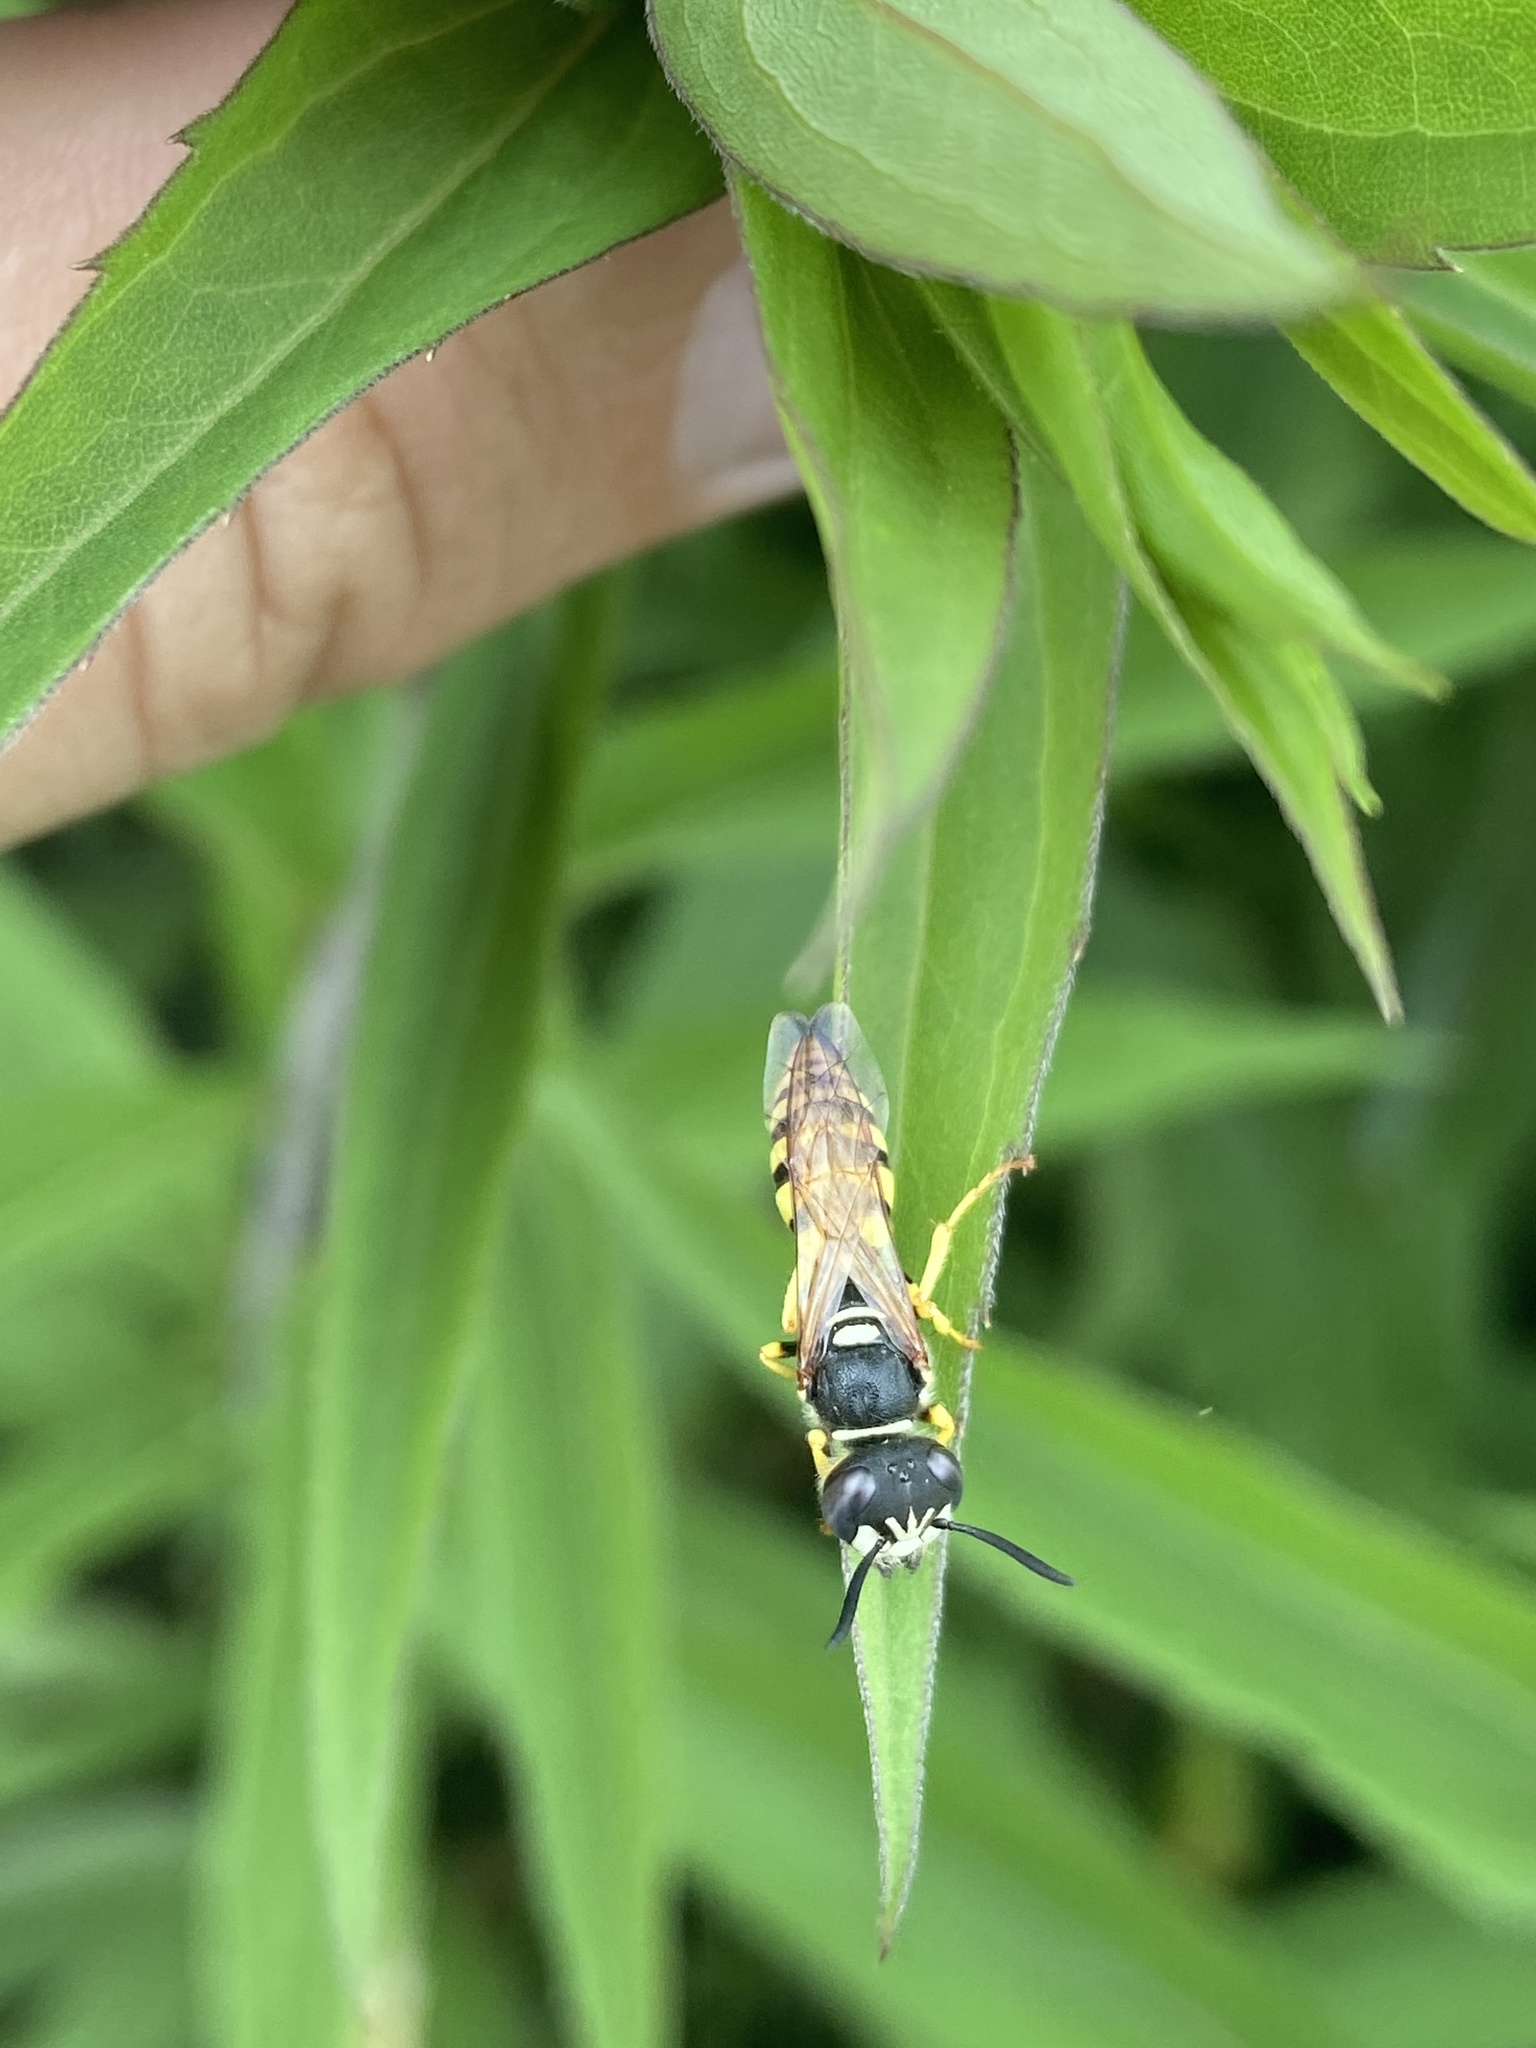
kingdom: Animalia
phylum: Arthropoda
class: Insecta
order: Hymenoptera
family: Crabronidae
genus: Philanthus
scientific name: Philanthus triangulum
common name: Bee wolf
